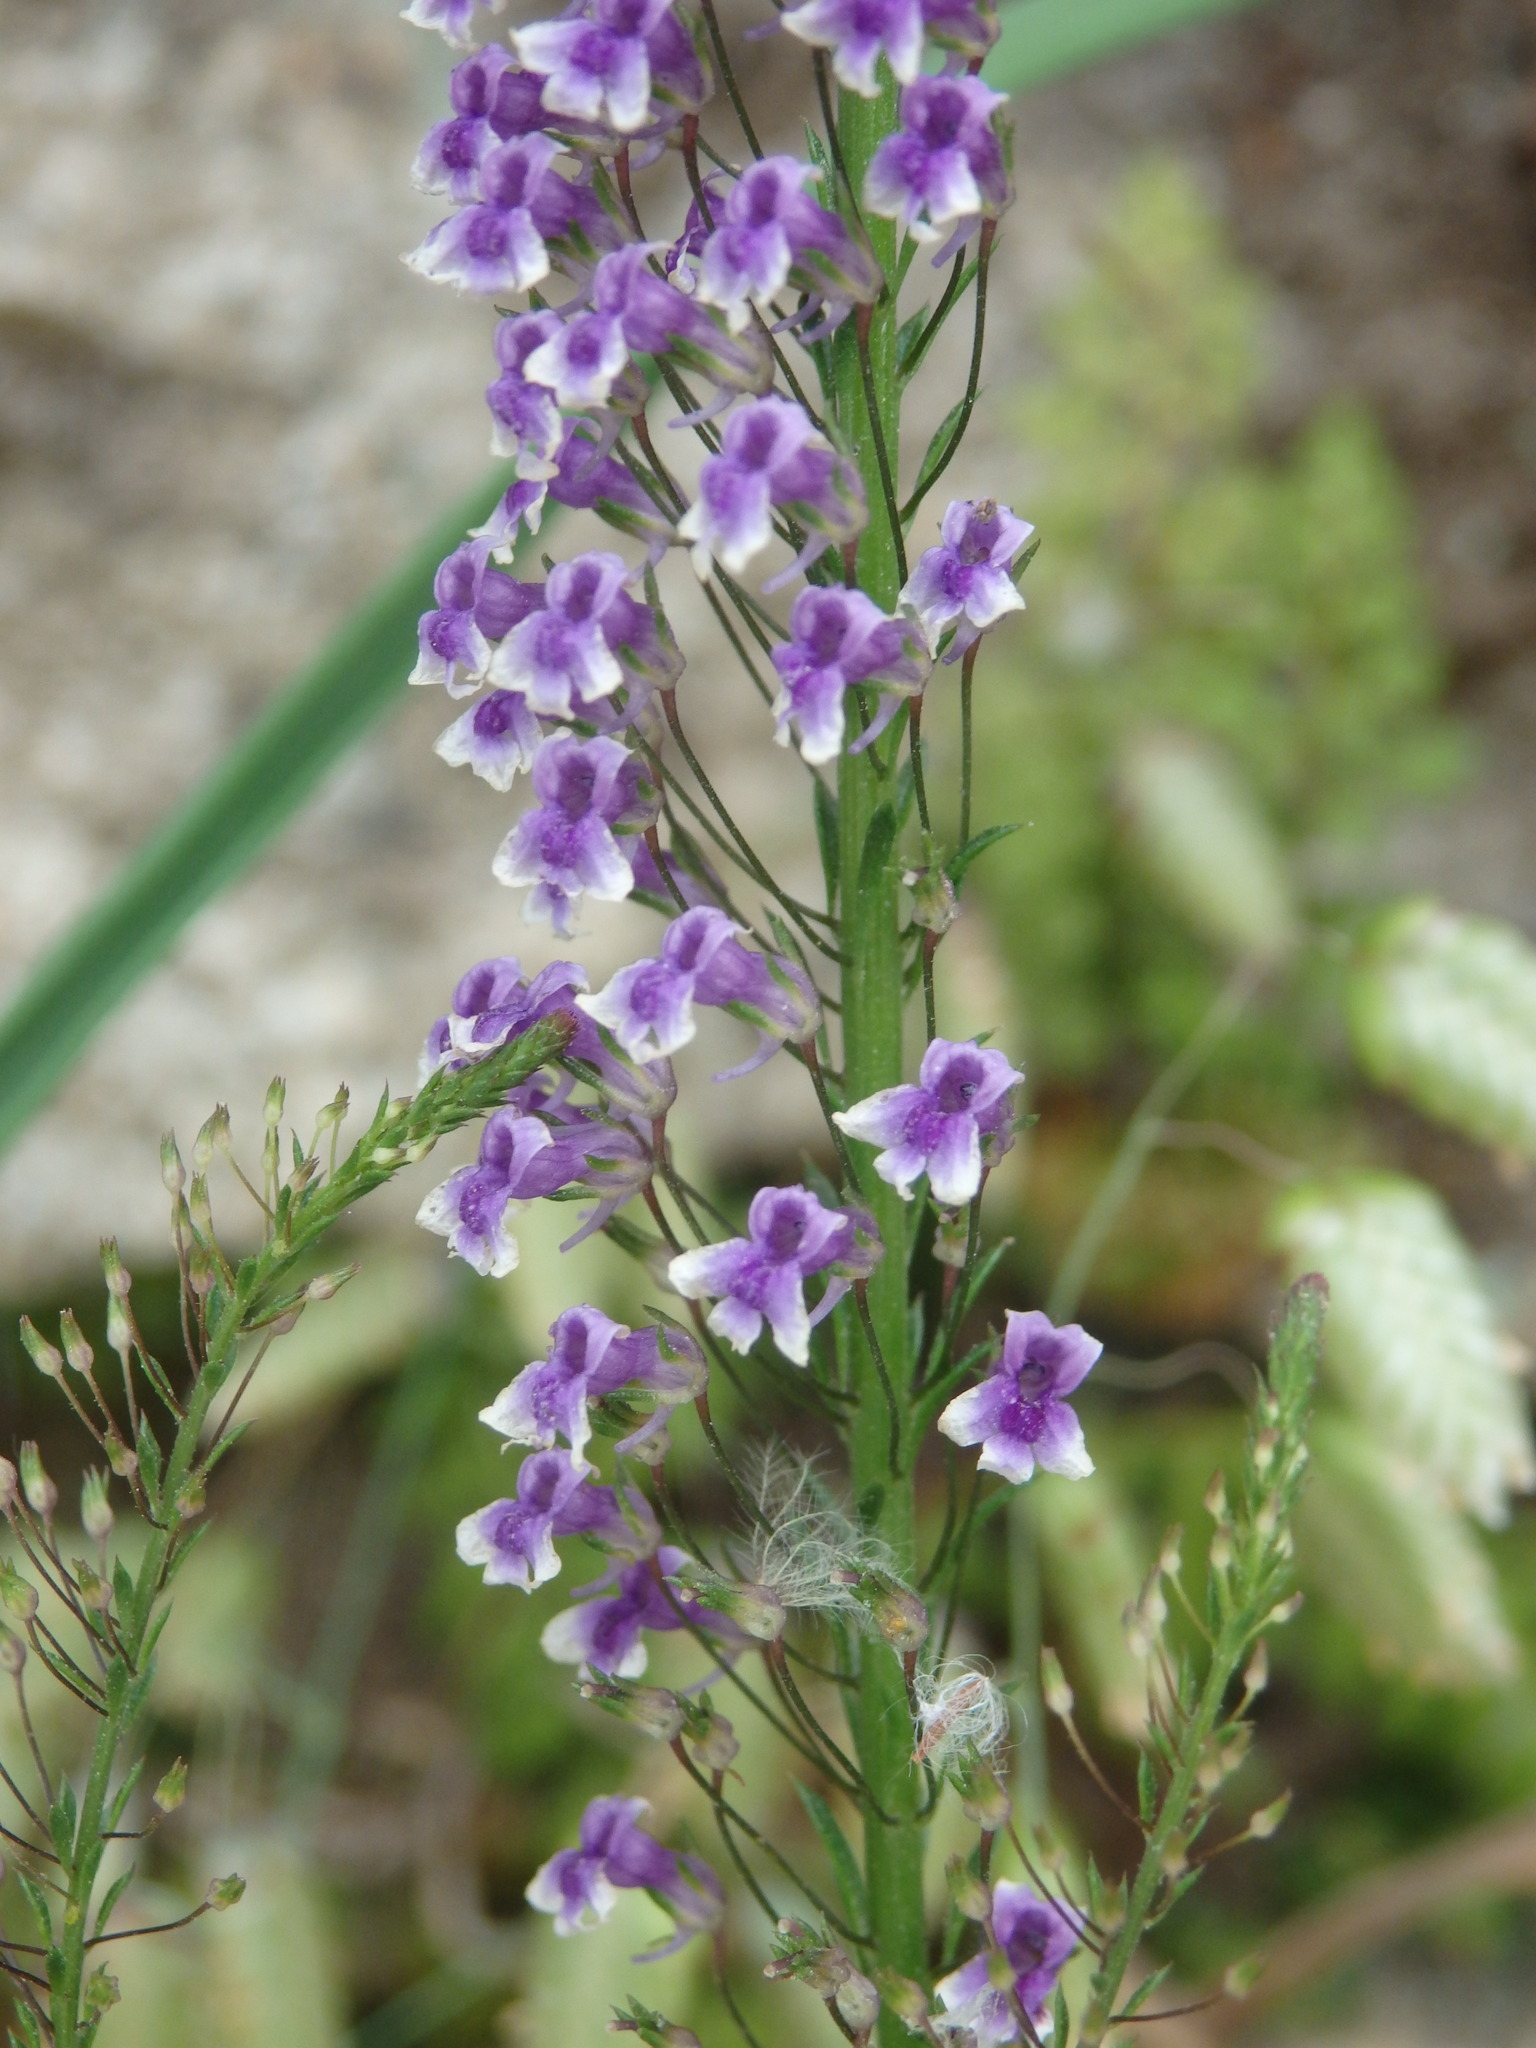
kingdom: Plantae
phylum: Tracheophyta
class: Magnoliopsida
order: Lamiales
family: Plantaginaceae
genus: Anarrhinum
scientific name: Anarrhinum longipedicellatum
